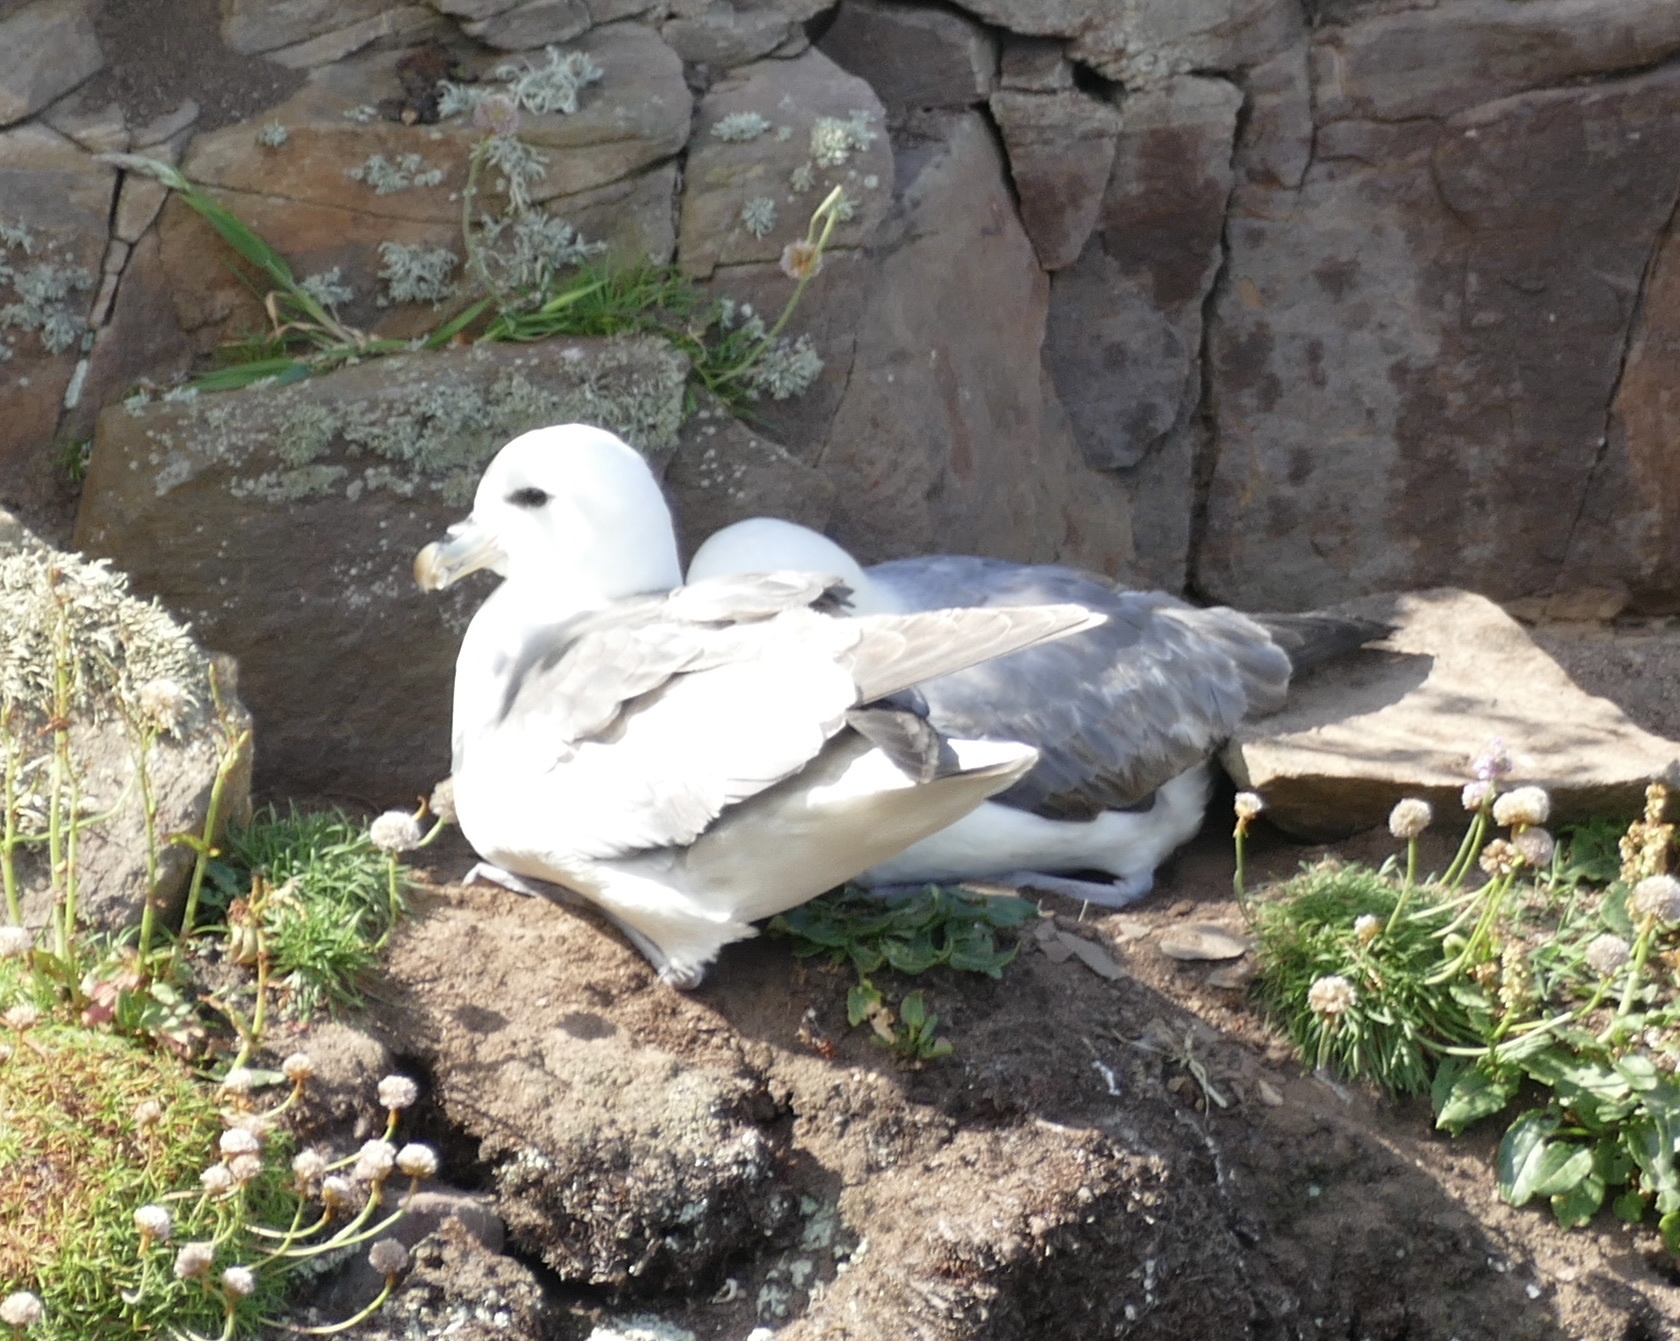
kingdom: Animalia
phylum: Chordata
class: Aves
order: Procellariiformes
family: Procellariidae
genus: Fulmarus
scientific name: Fulmarus glacialis
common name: Northern fulmar
